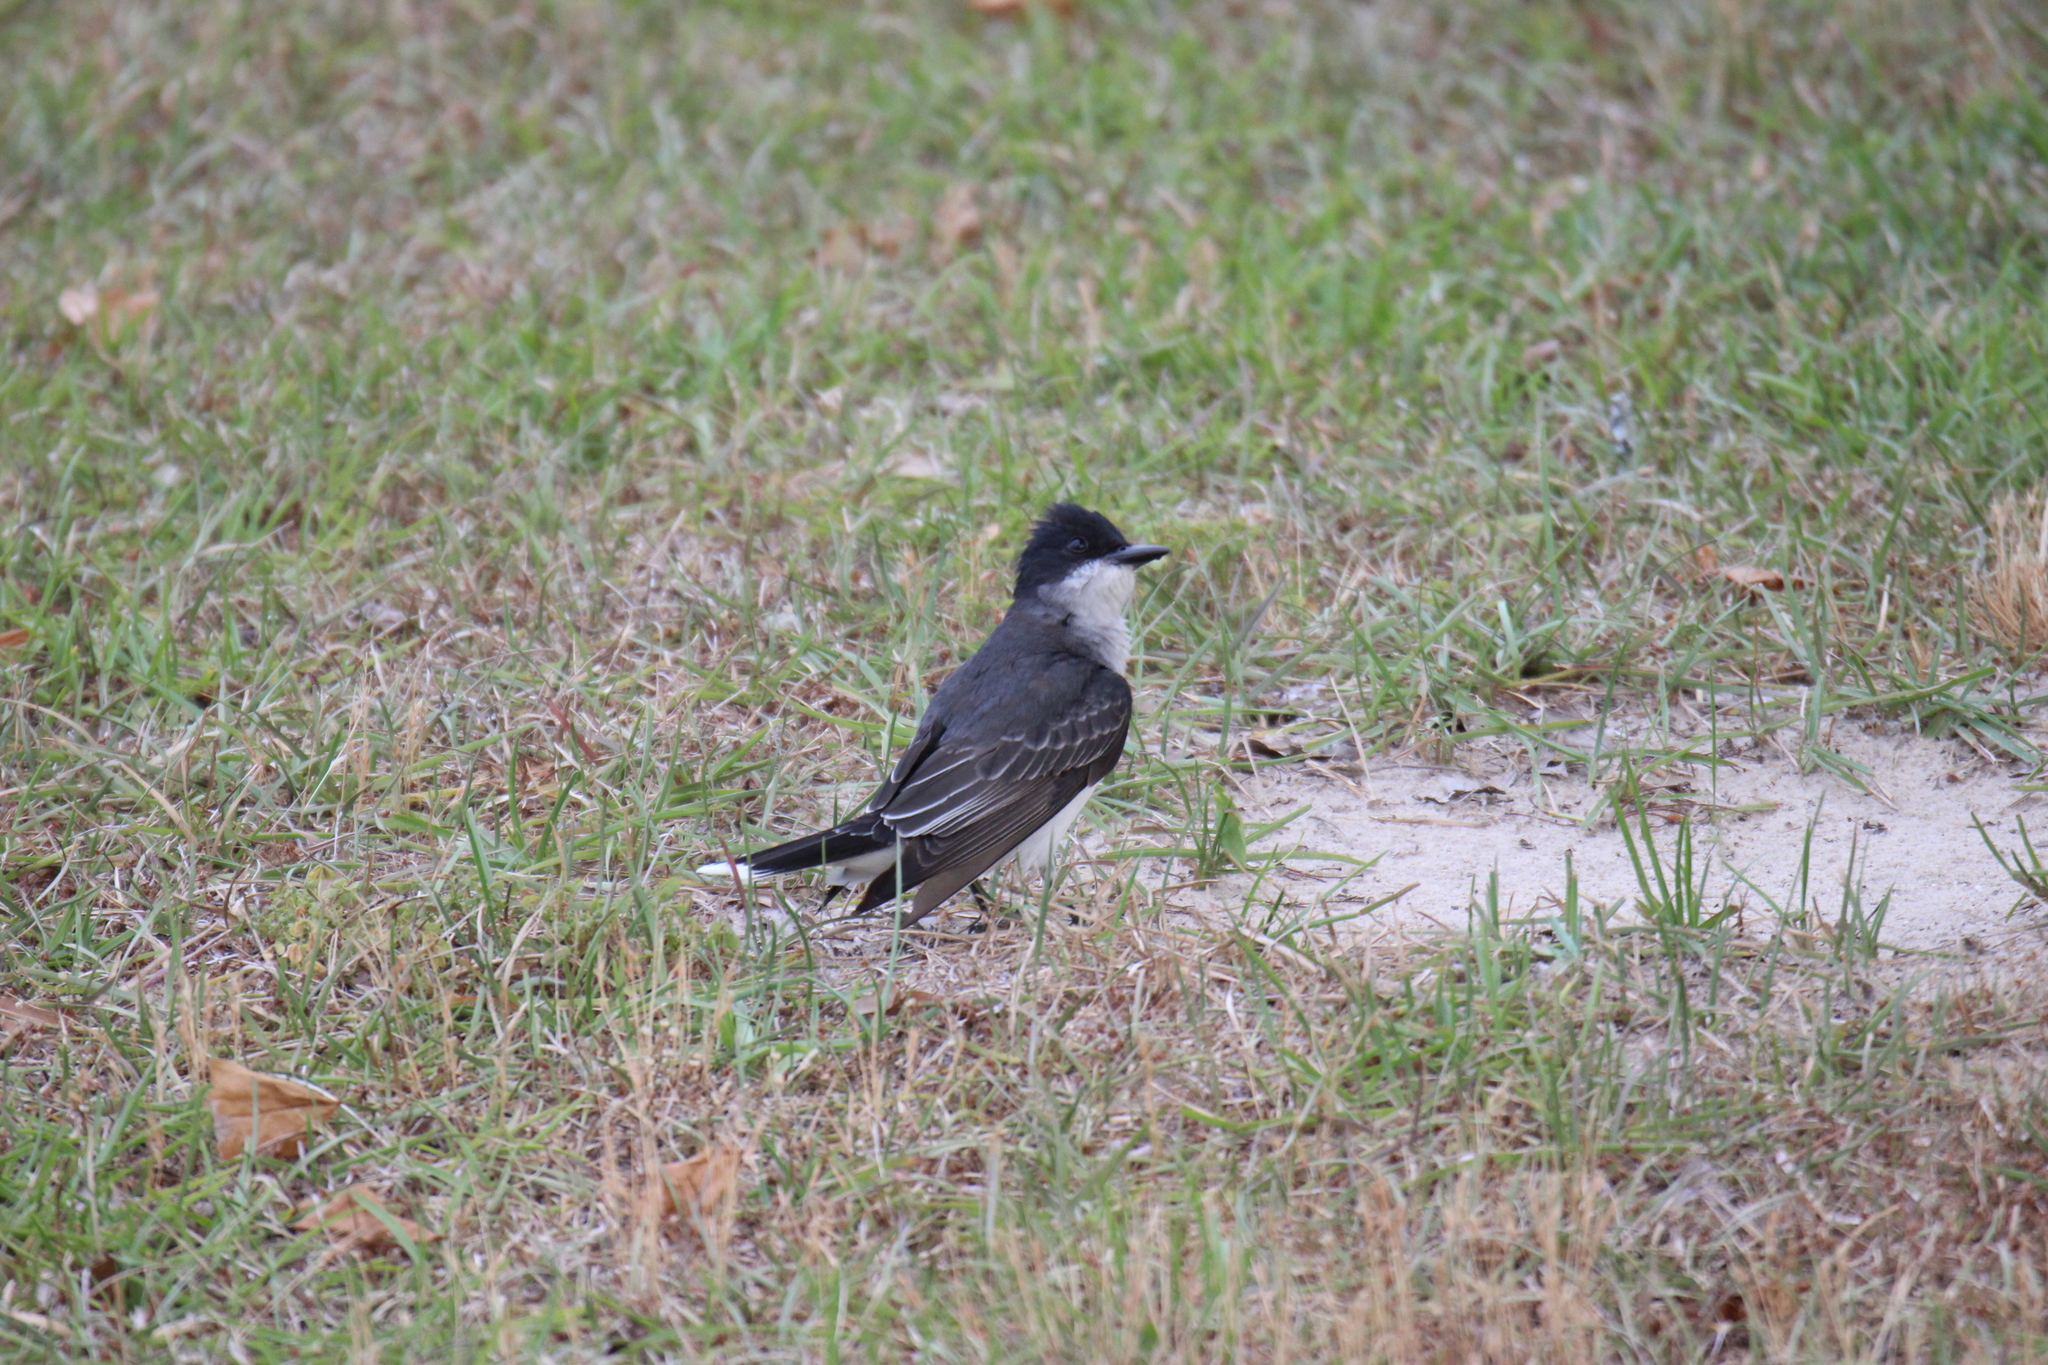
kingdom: Animalia
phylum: Chordata
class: Aves
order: Passeriformes
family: Tyrannidae
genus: Tyrannus
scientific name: Tyrannus tyrannus
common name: Eastern kingbird
